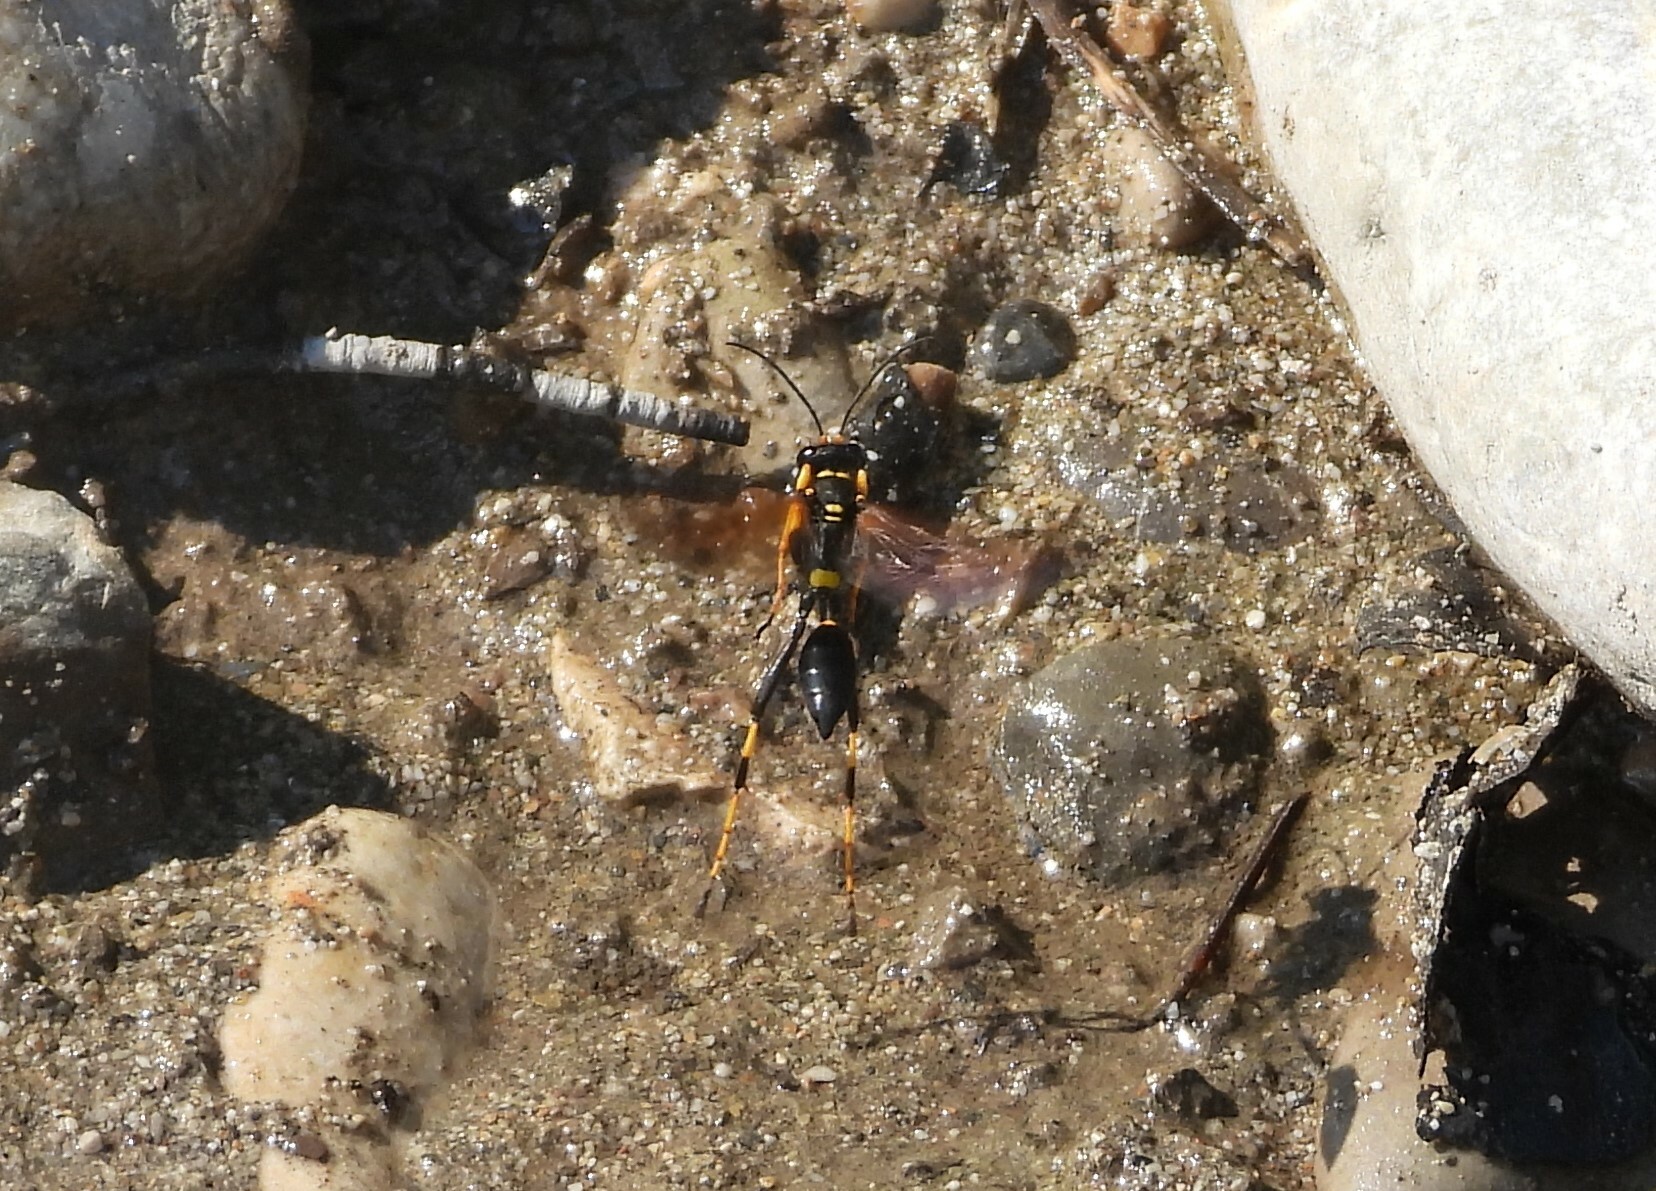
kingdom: Animalia
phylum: Arthropoda
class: Insecta
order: Hymenoptera
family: Sphecidae
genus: Sceliphron
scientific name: Sceliphron caementarium
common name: Mud dauber
